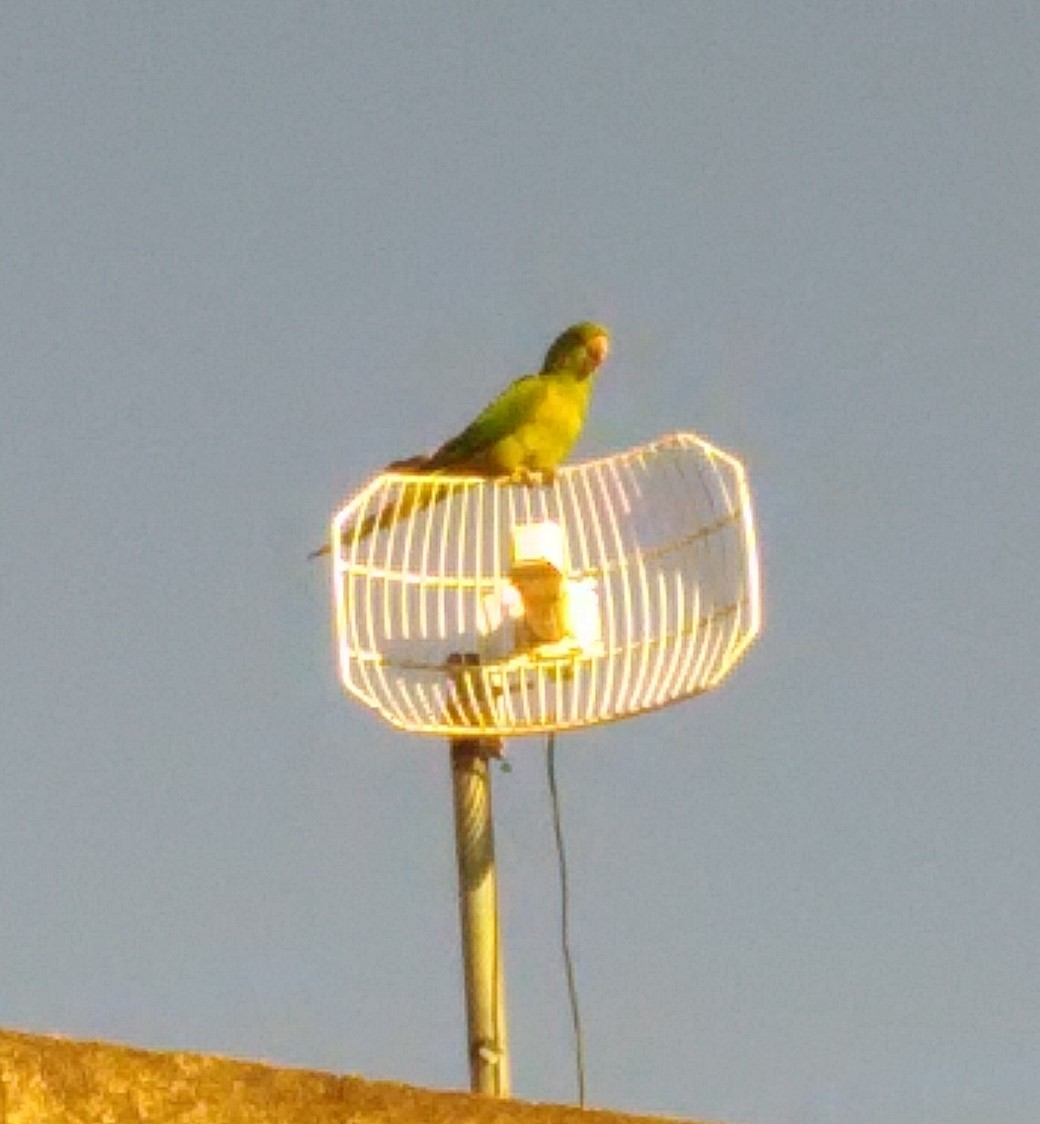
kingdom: Animalia
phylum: Chordata
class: Aves
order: Psittaciformes
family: Psittacidae
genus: Aratinga
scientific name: Aratinga leucophthalma
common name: White-eyed parakeet
